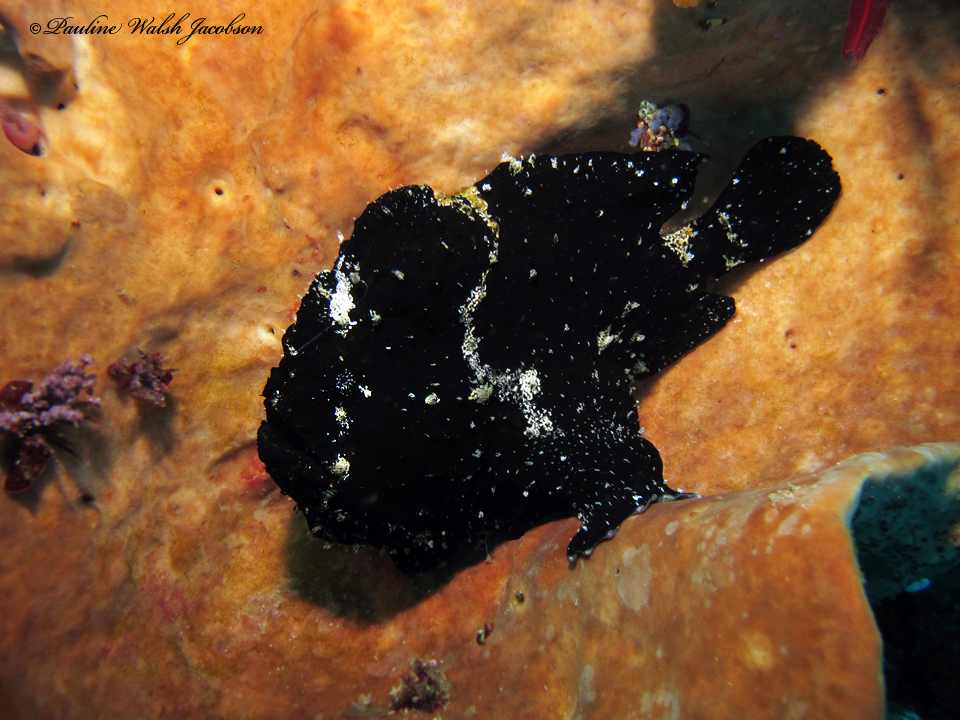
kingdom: Animalia
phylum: Chordata
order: Lophiiformes
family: Antennariidae
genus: Antennarius
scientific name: Antennarius commerson
